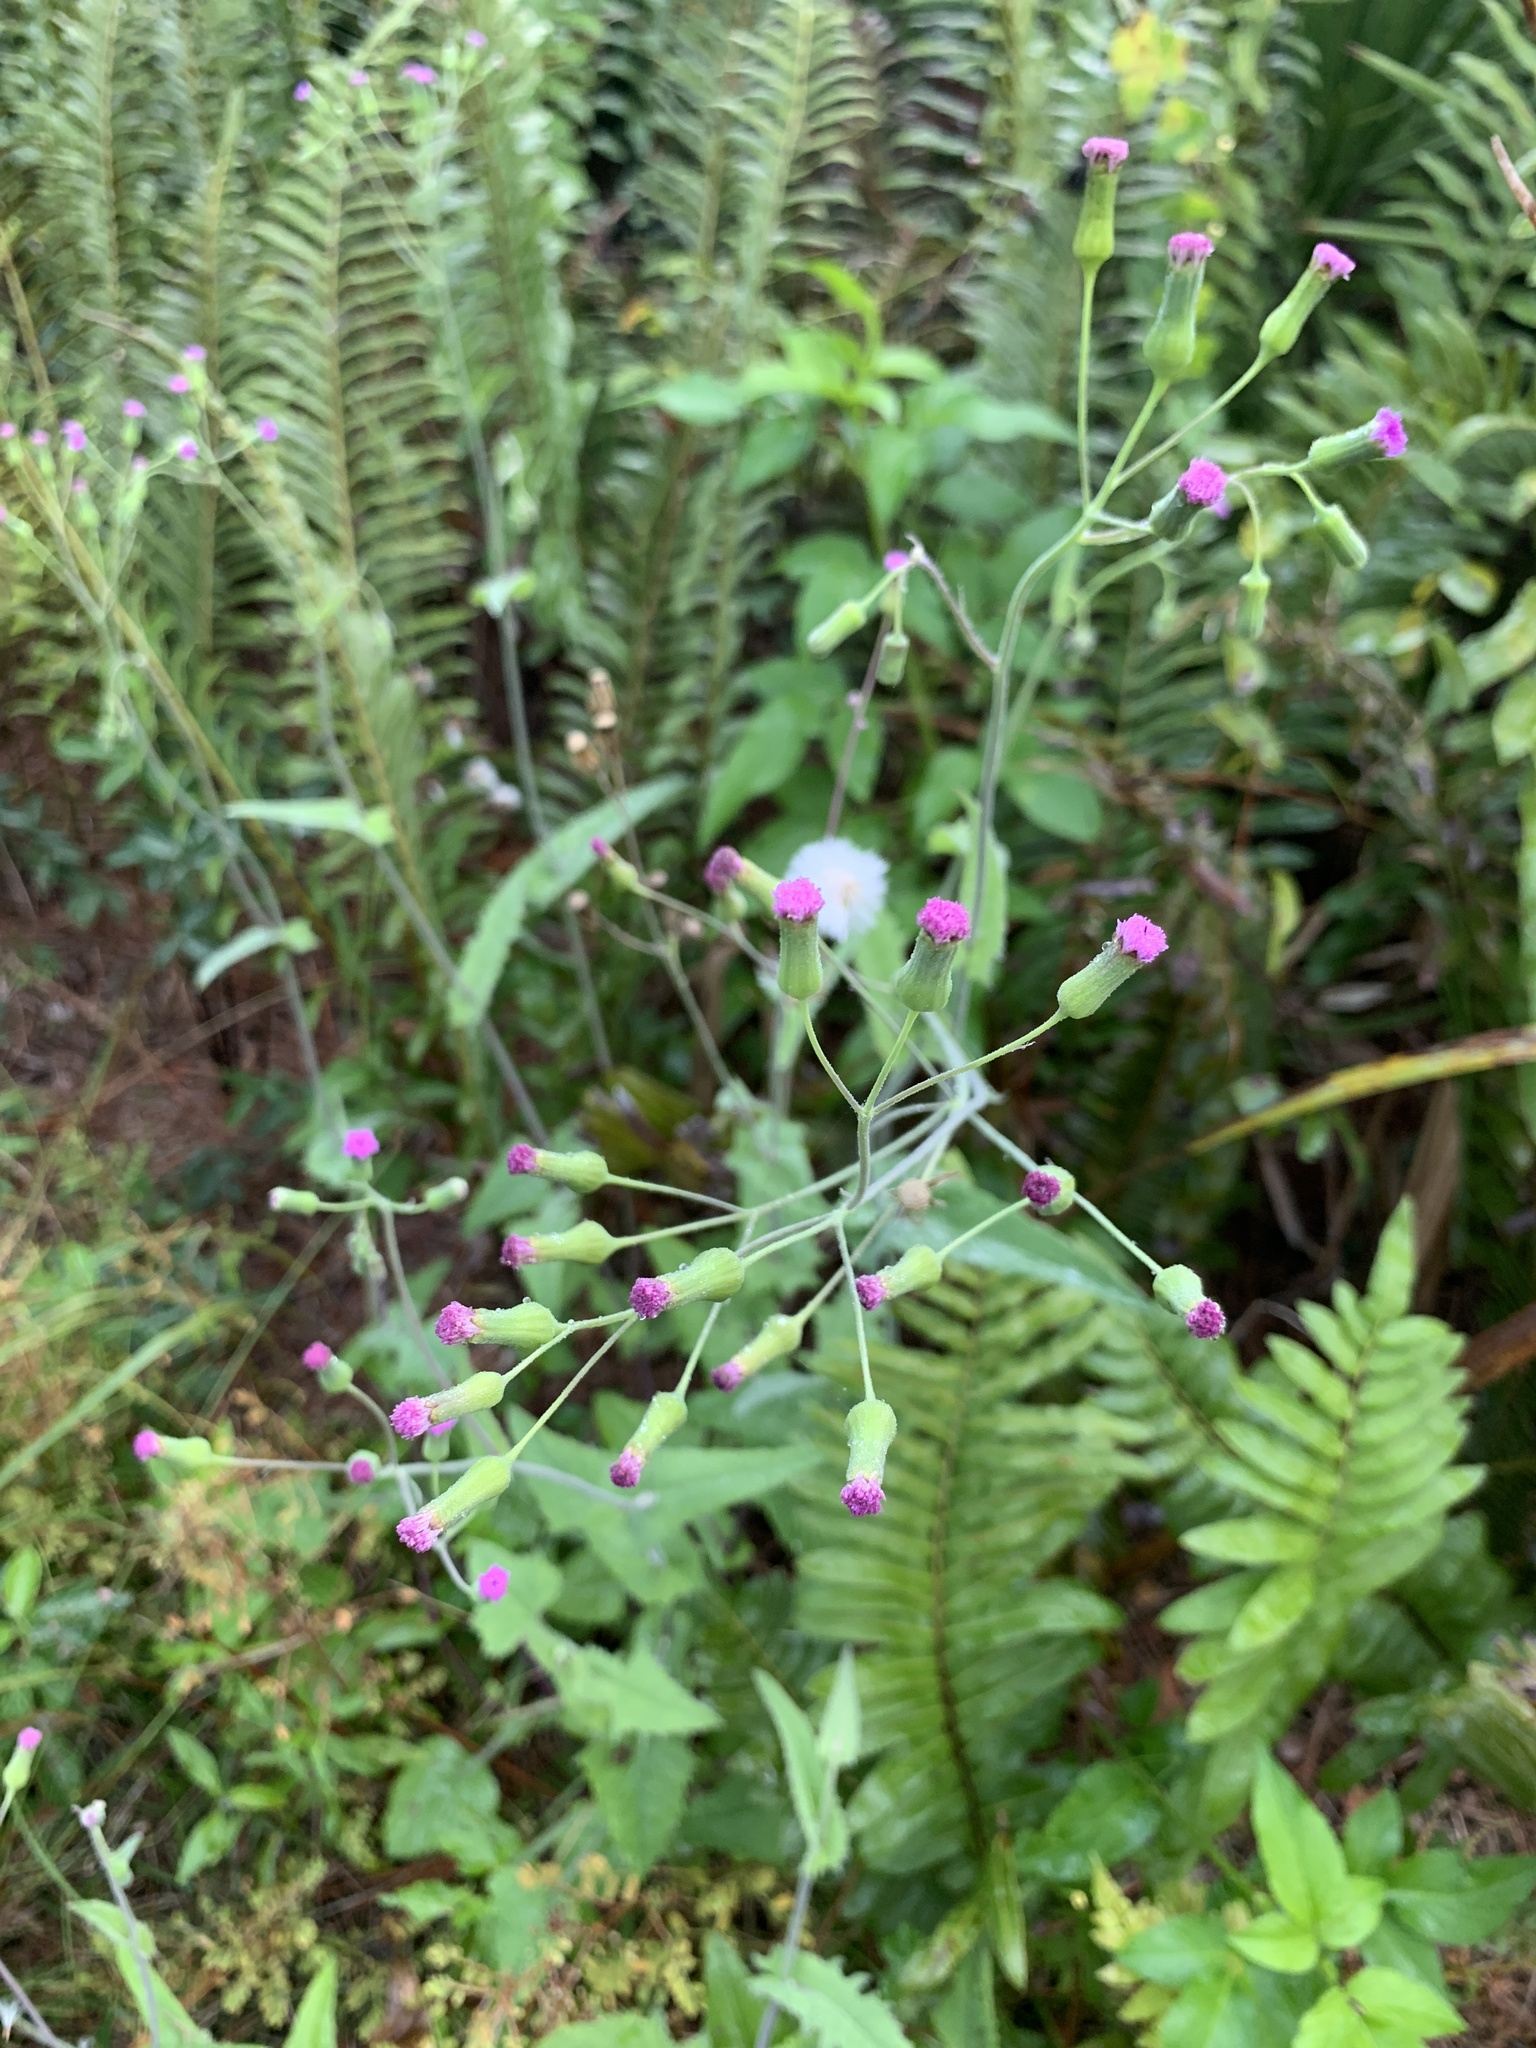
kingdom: Plantae
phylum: Tracheophyta
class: Magnoliopsida
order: Asterales
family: Asteraceae
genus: Emilia
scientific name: Emilia sonchifolia
